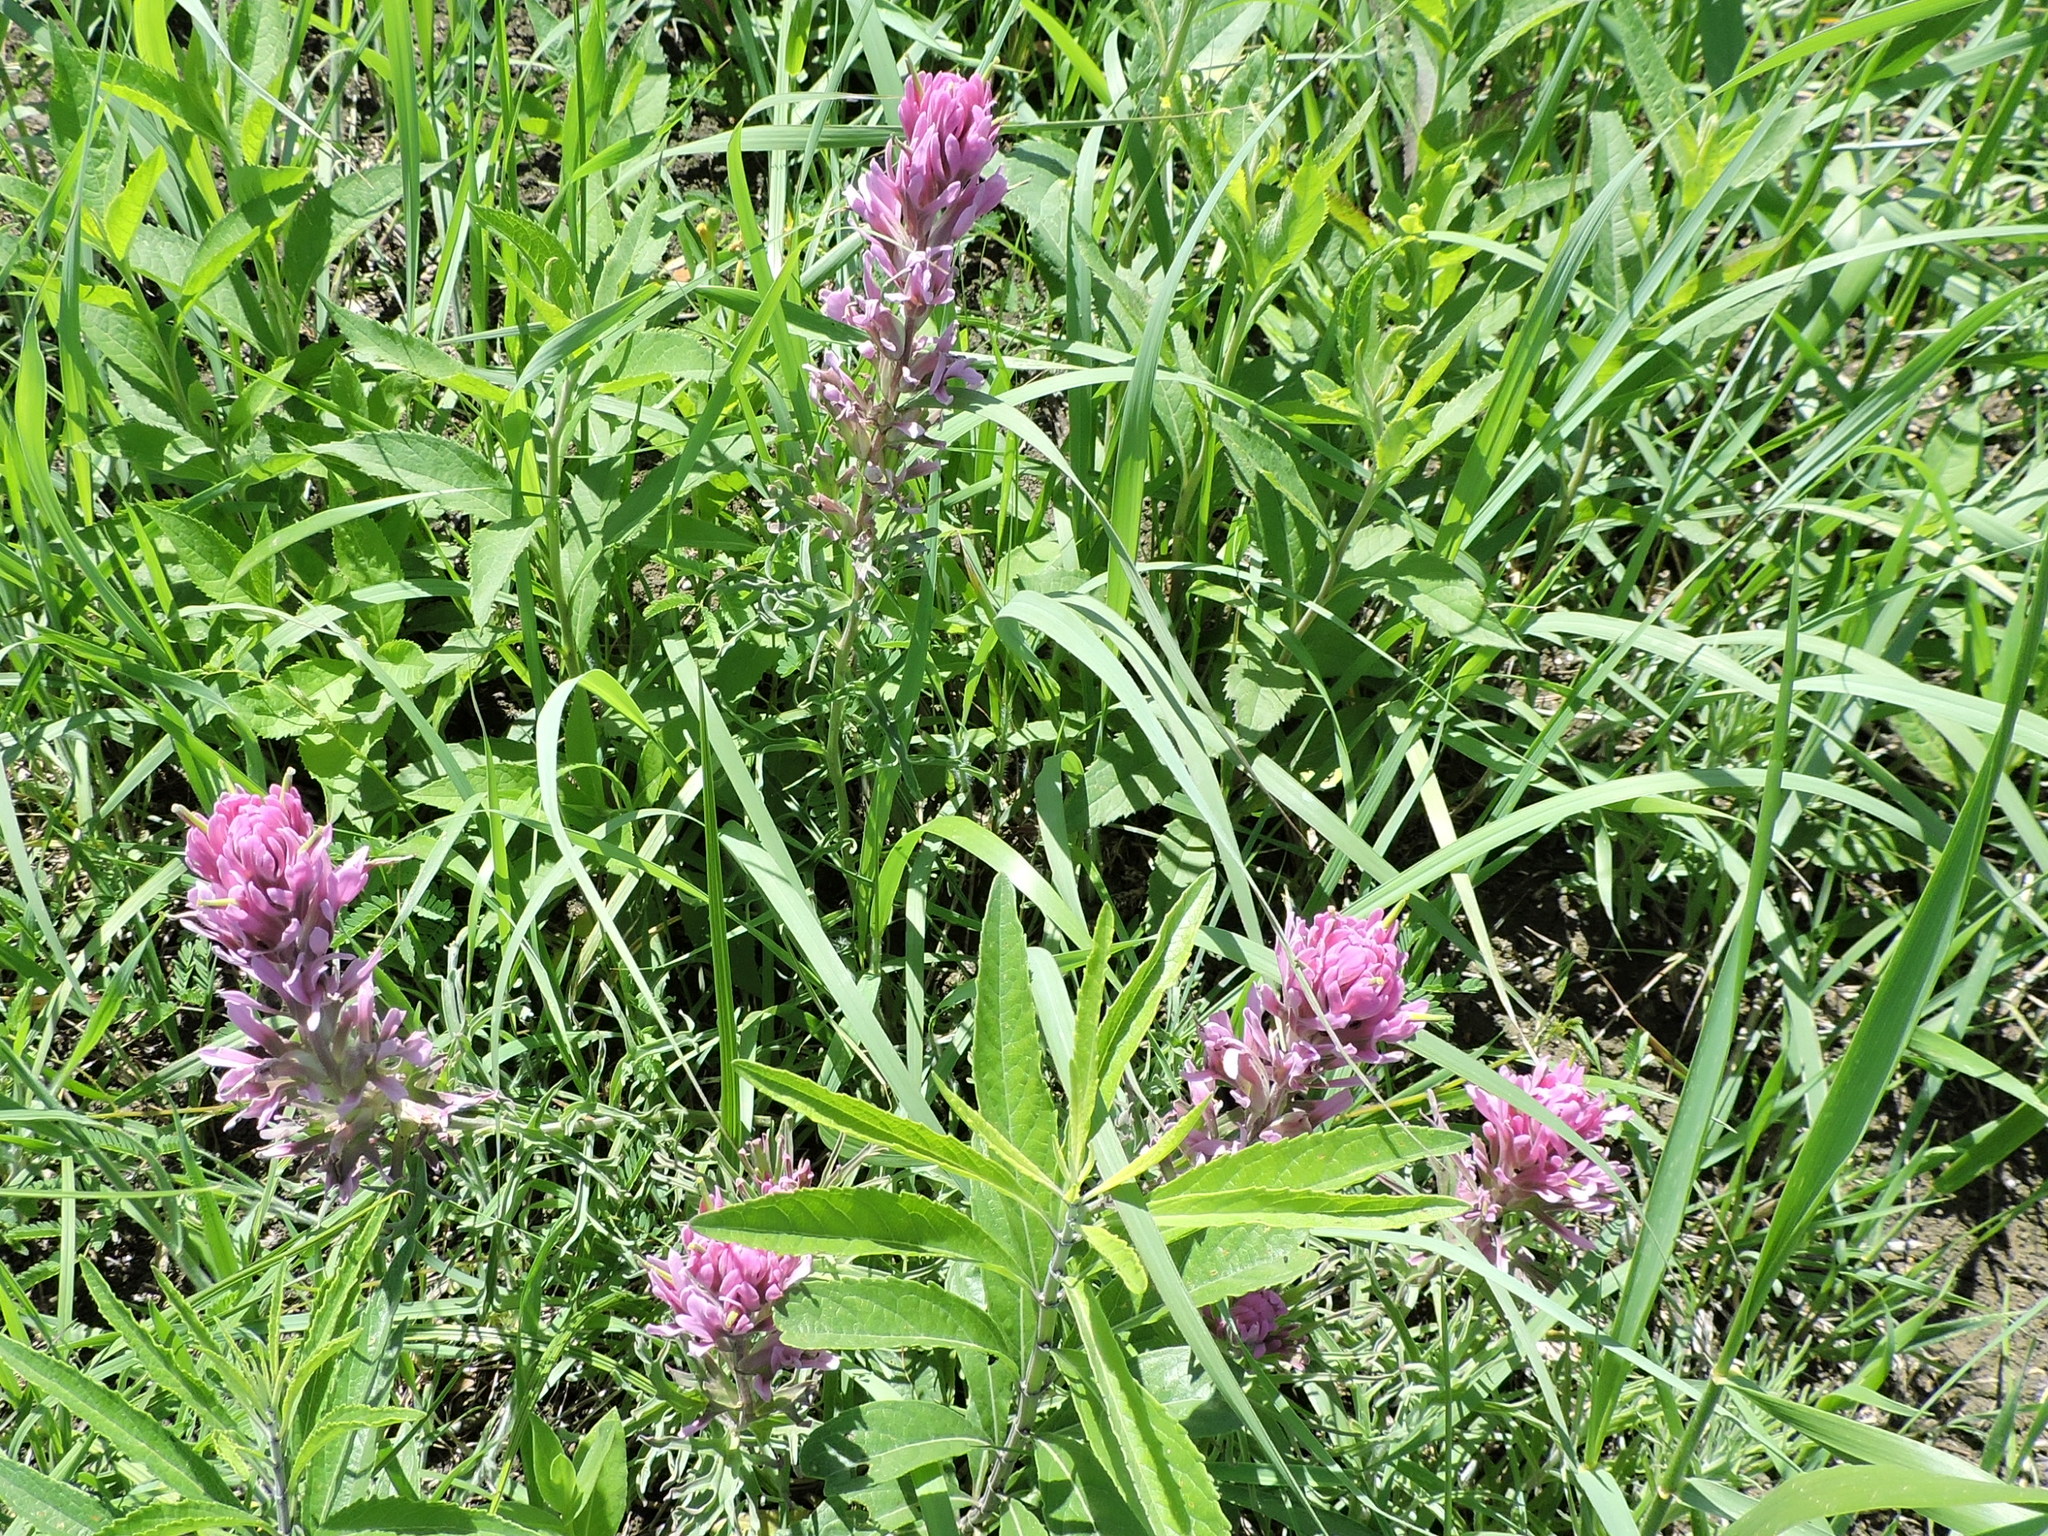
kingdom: Plantae
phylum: Tracheophyta
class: Magnoliopsida
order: Lamiales
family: Orobanchaceae
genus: Castilleja
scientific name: Castilleja purpurea
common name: Plains paintbrush
